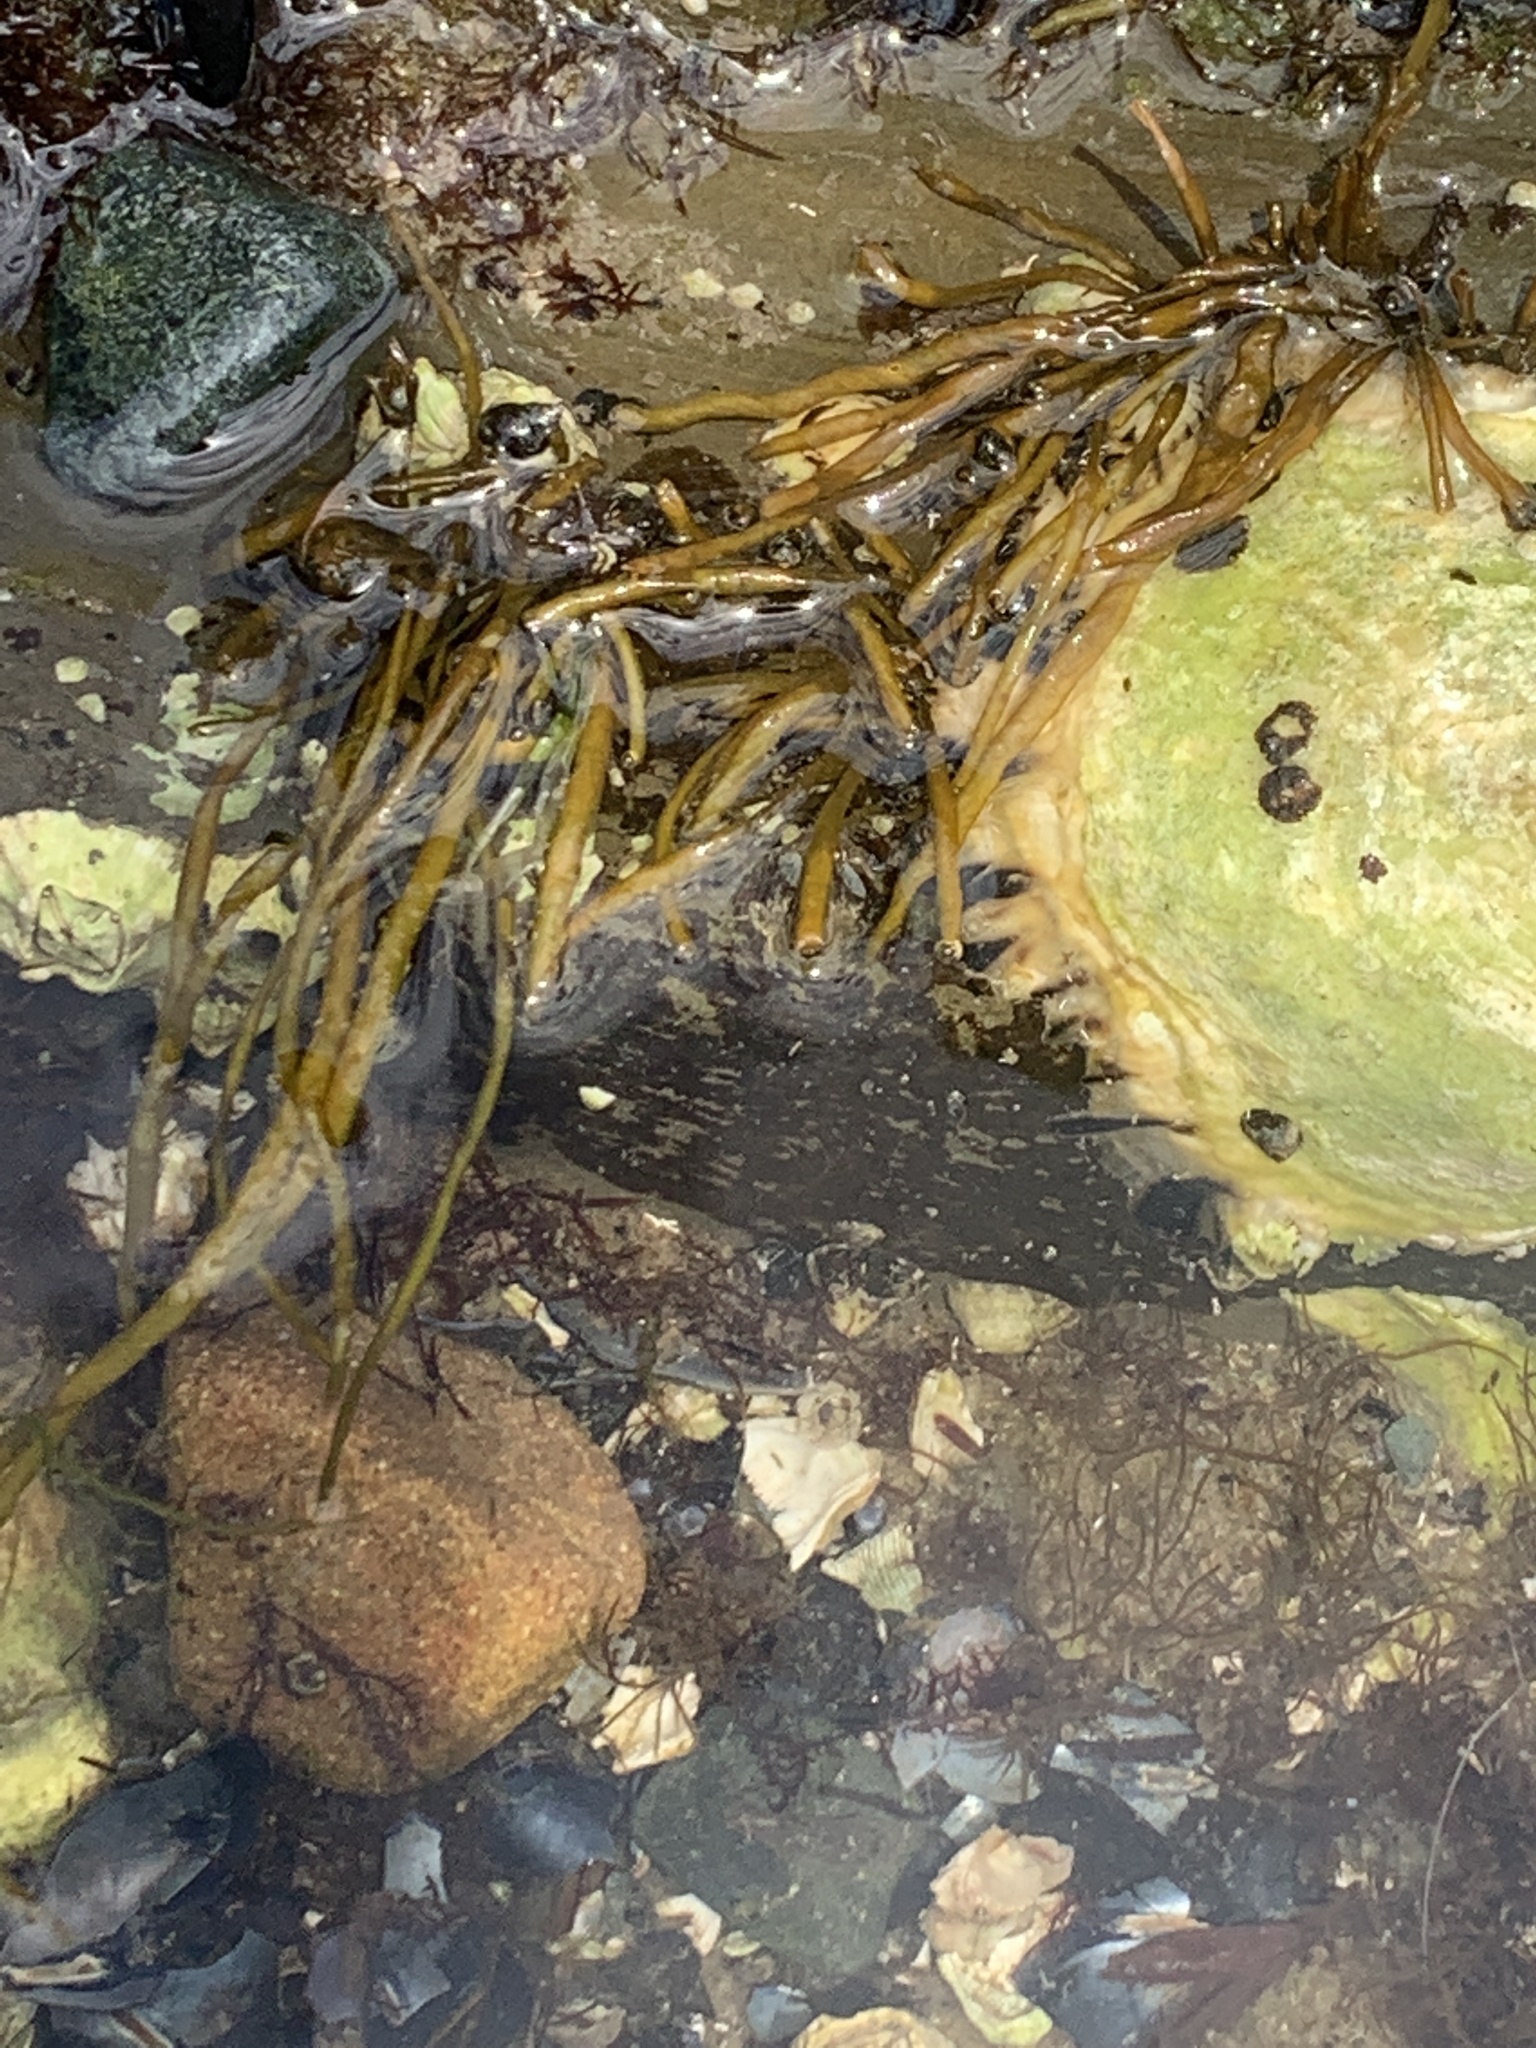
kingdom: Chromista
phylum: Ochrophyta
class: Phaeophyceae
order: Scytosiphonales
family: Scytosiphonaceae
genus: Scytosiphon
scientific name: Scytosiphon lomentaria
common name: Beanweed
